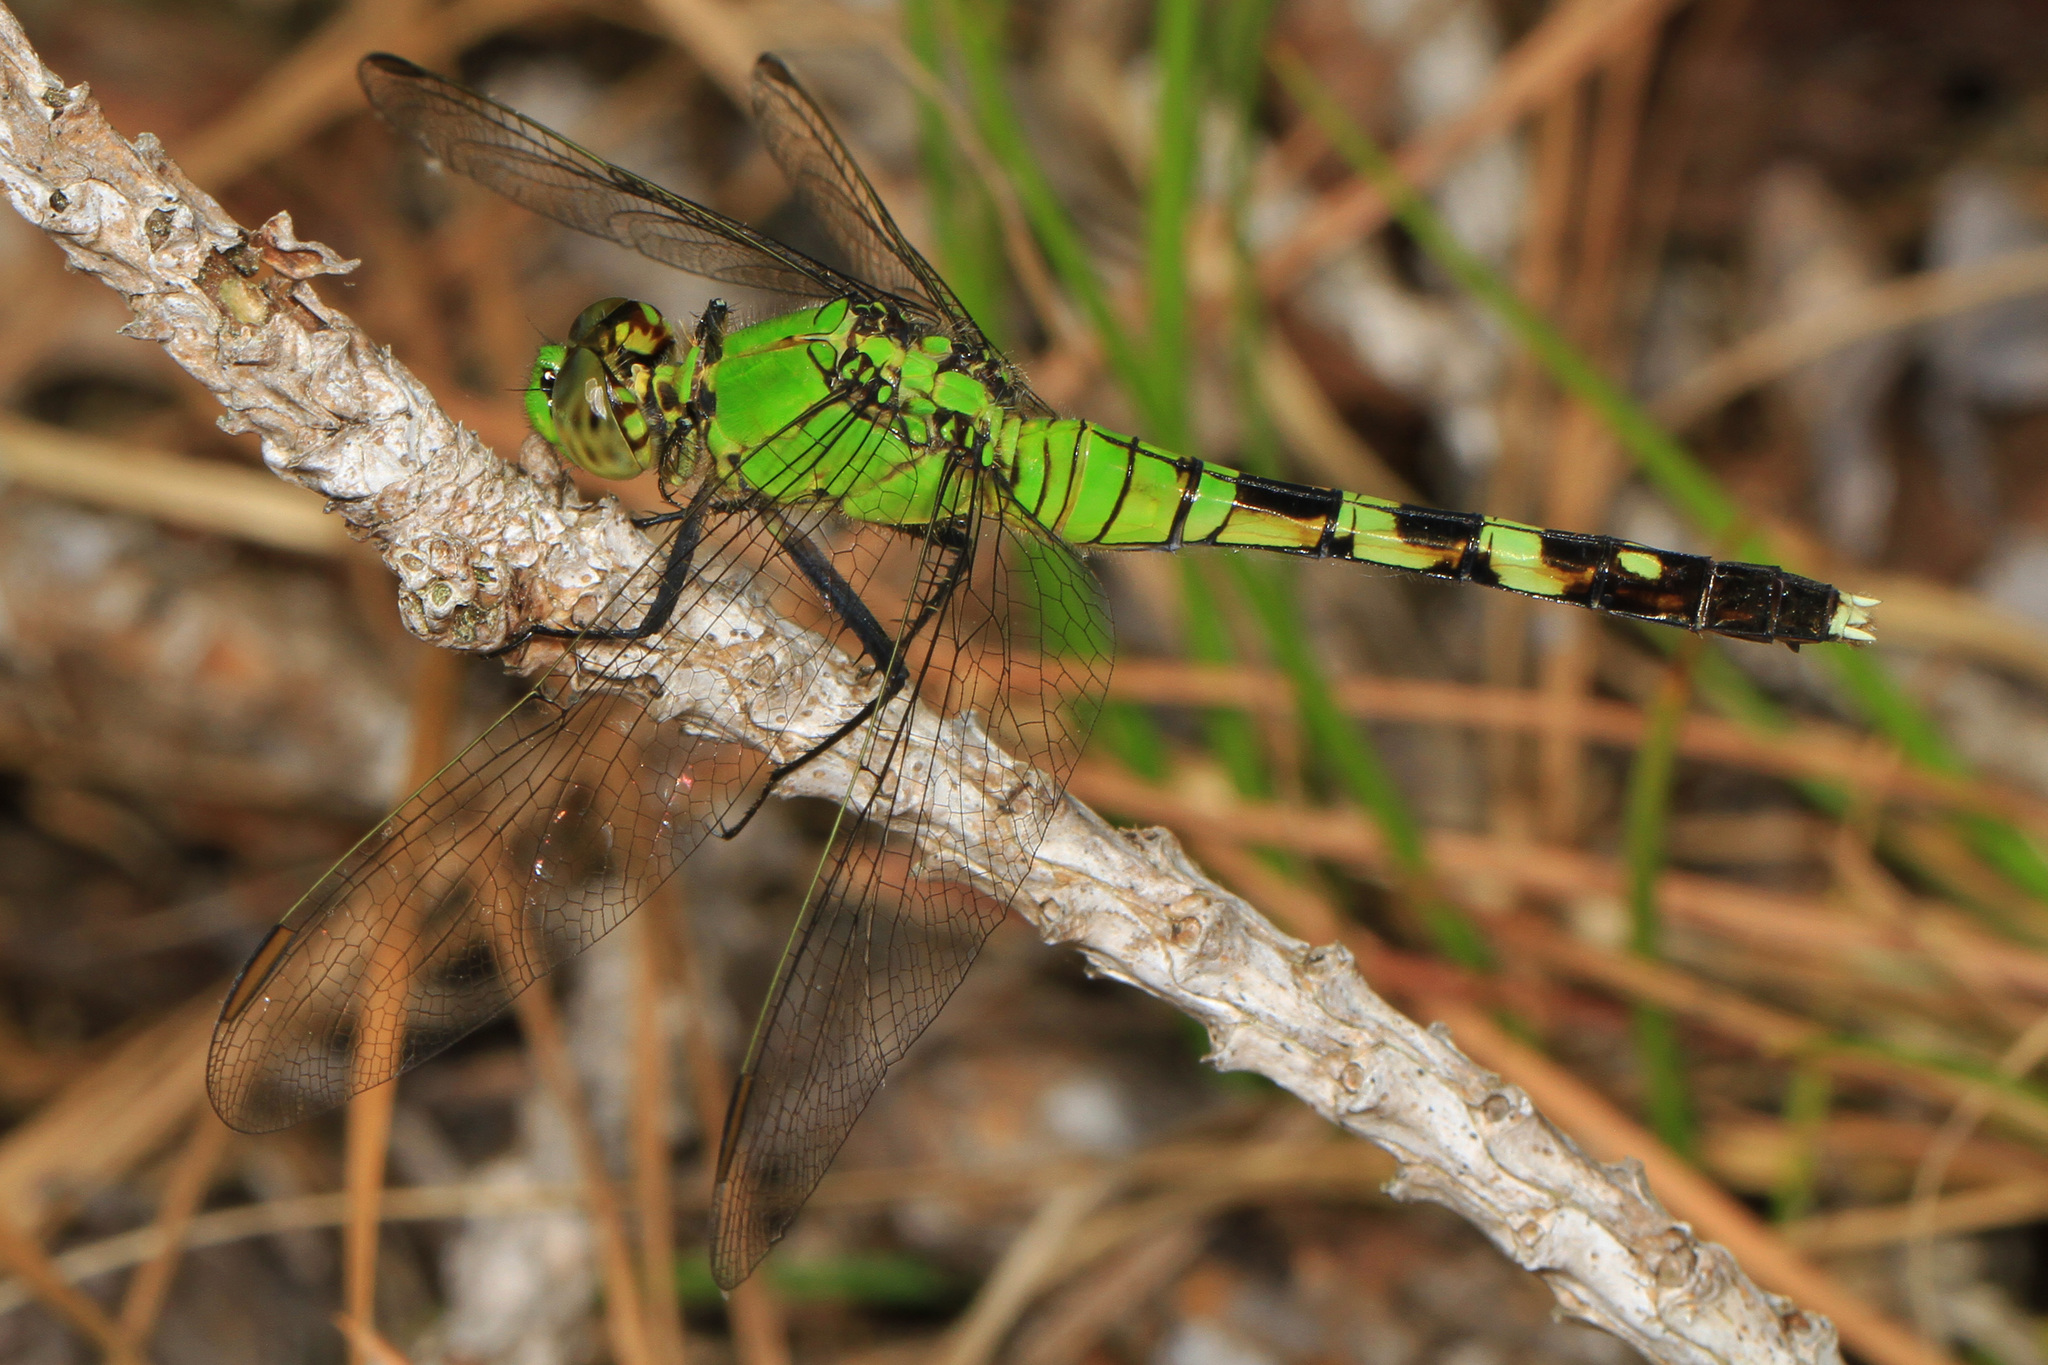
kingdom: Animalia
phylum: Arthropoda
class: Insecta
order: Odonata
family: Libellulidae
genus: Erythemis
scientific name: Erythemis simplicicollis
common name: Eastern pondhawk
